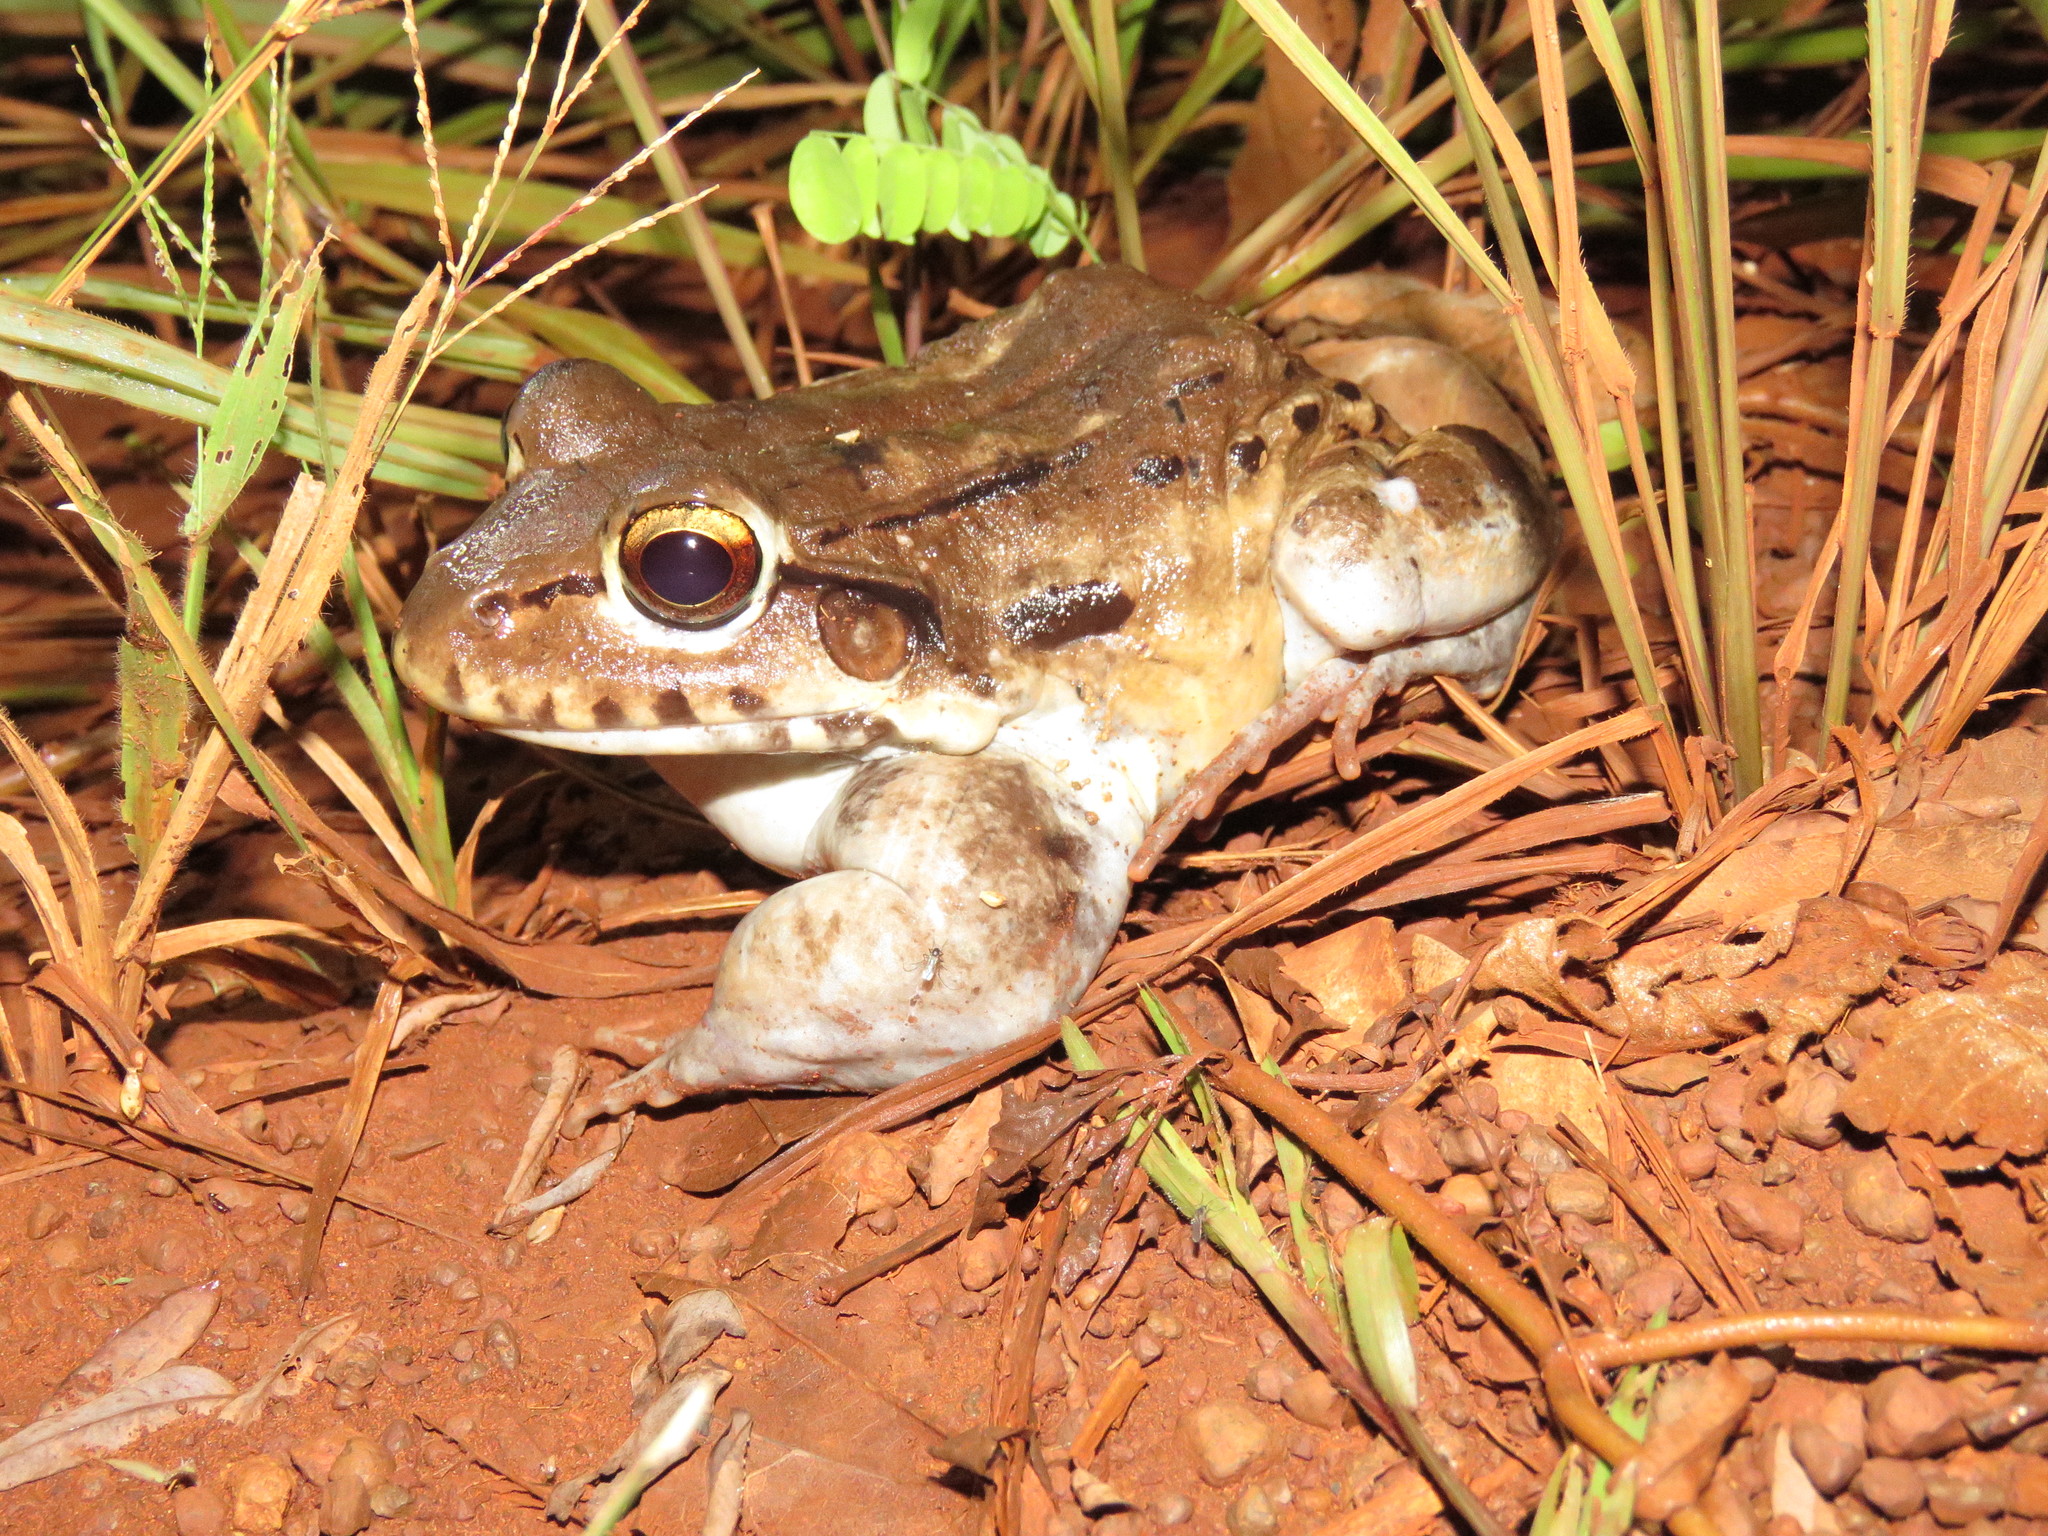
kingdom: Animalia
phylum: Chordata
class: Amphibia
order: Anura
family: Leptodactylidae
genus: Leptodactylus
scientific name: Leptodactylus vastus
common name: Northeastern pepper frog
